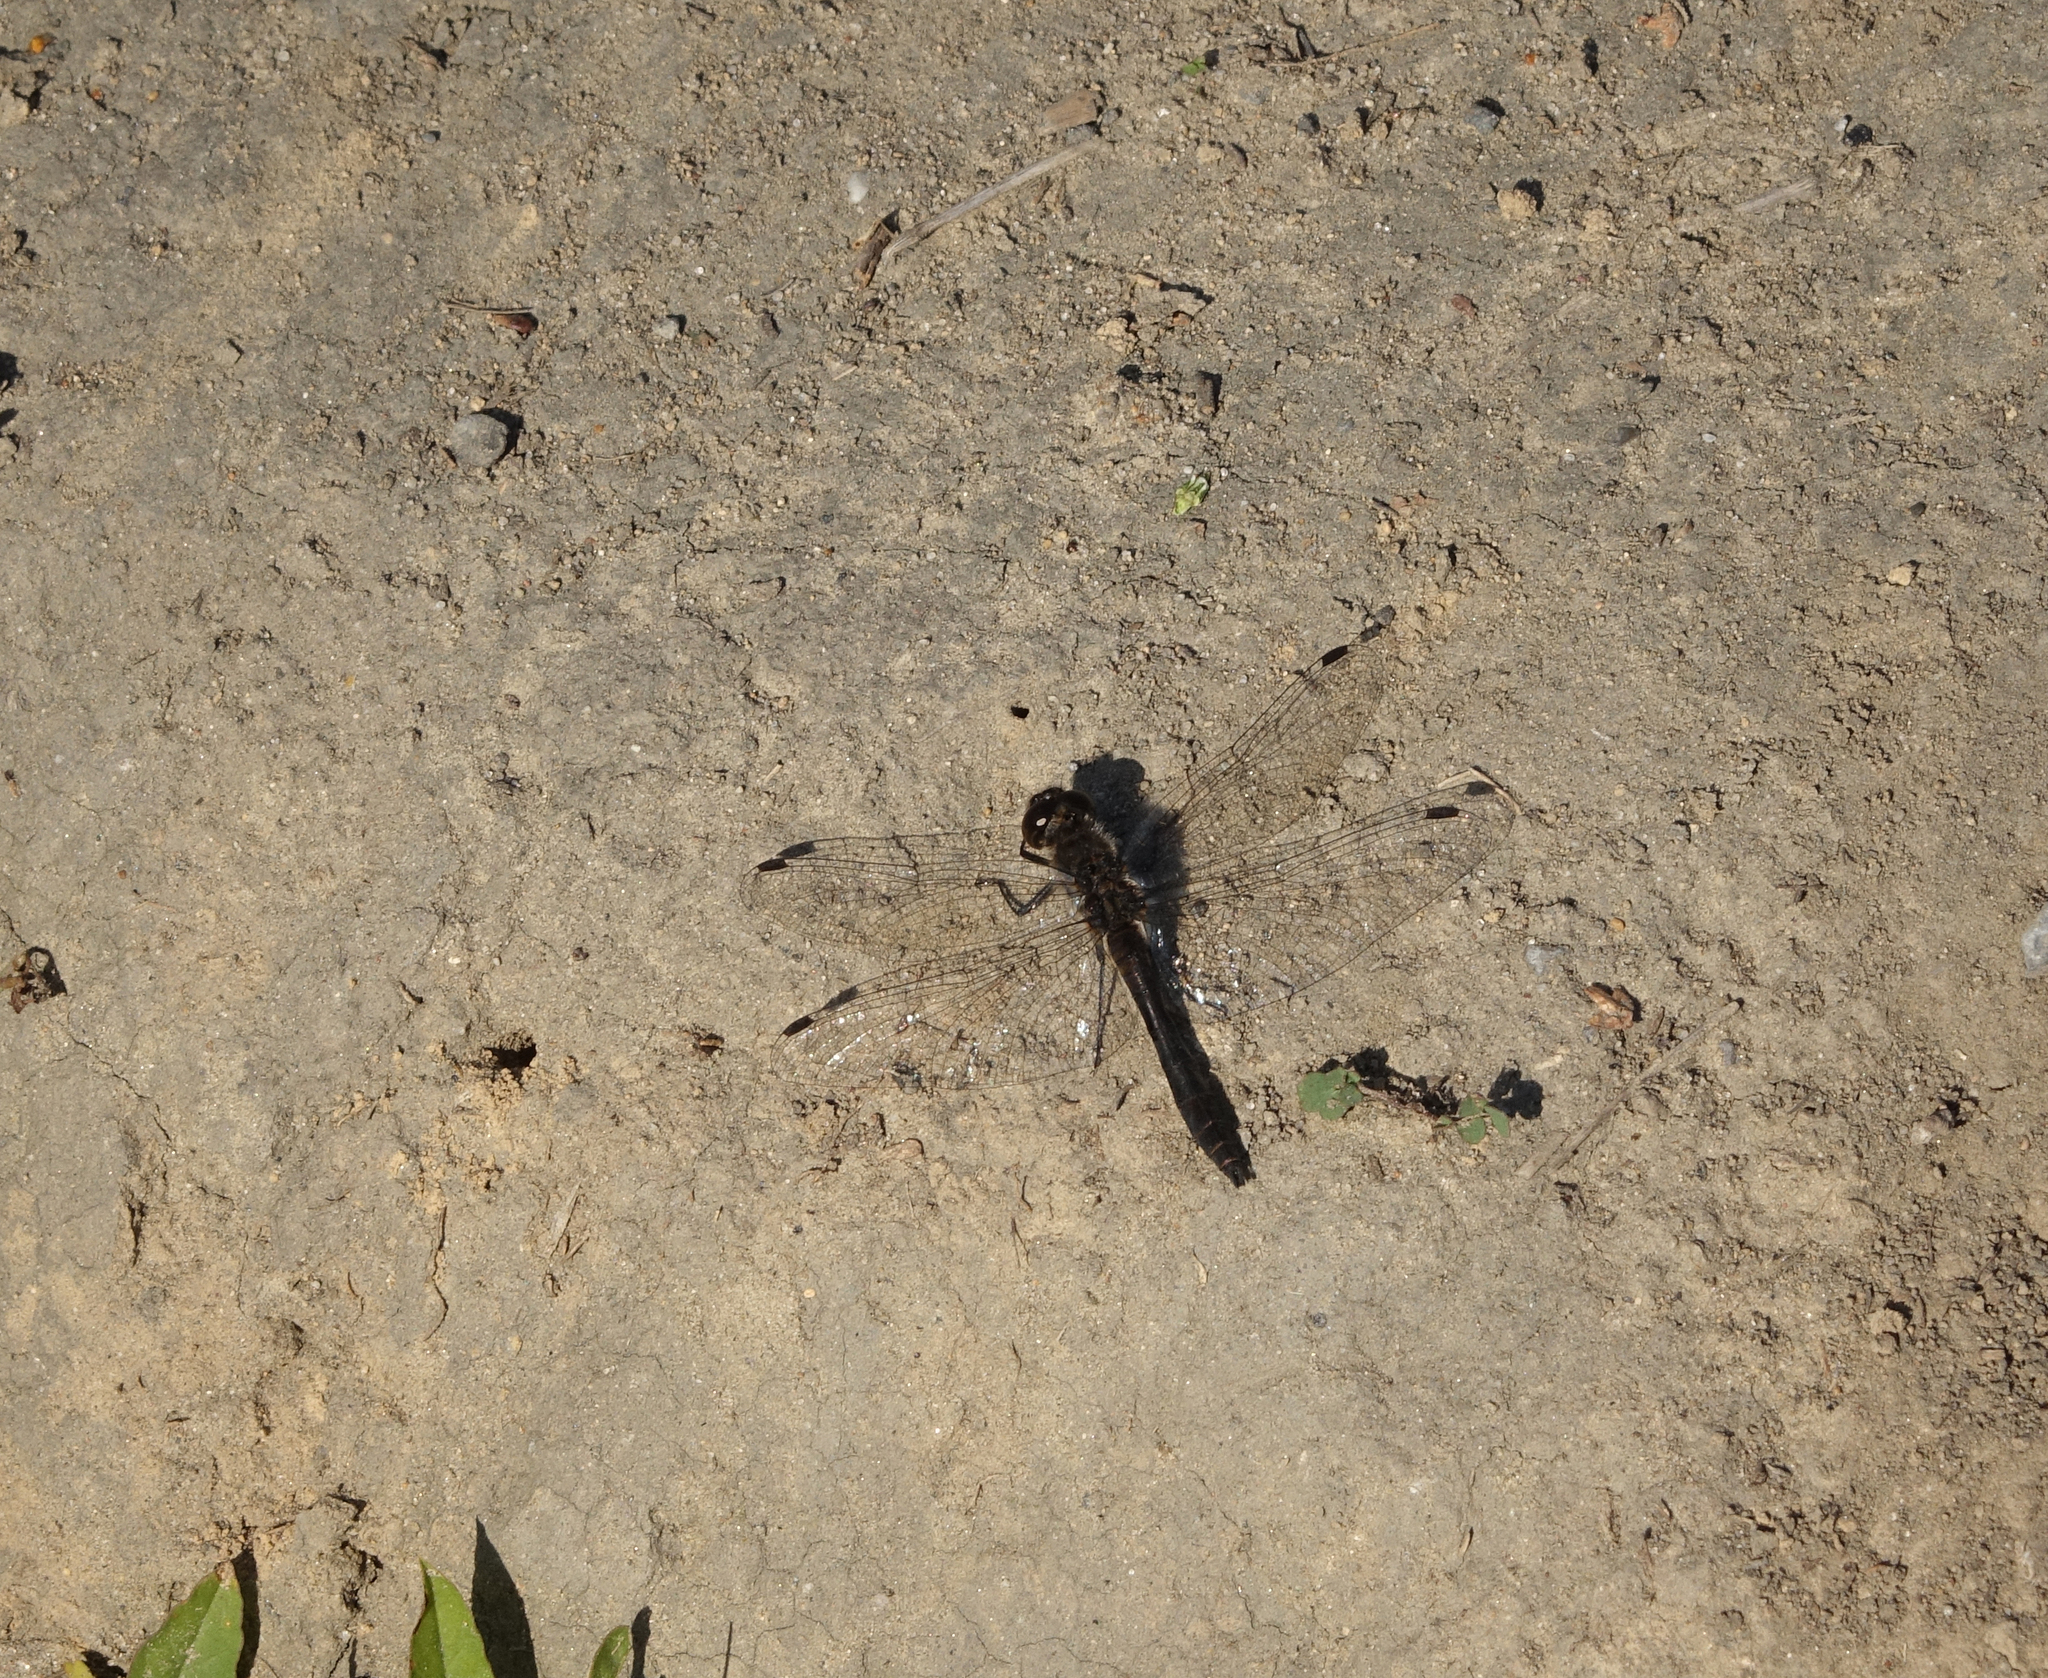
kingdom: Animalia
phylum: Arthropoda
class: Insecta
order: Odonata
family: Libellulidae
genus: Sympetrum
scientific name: Sympetrum danae
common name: Black darter
